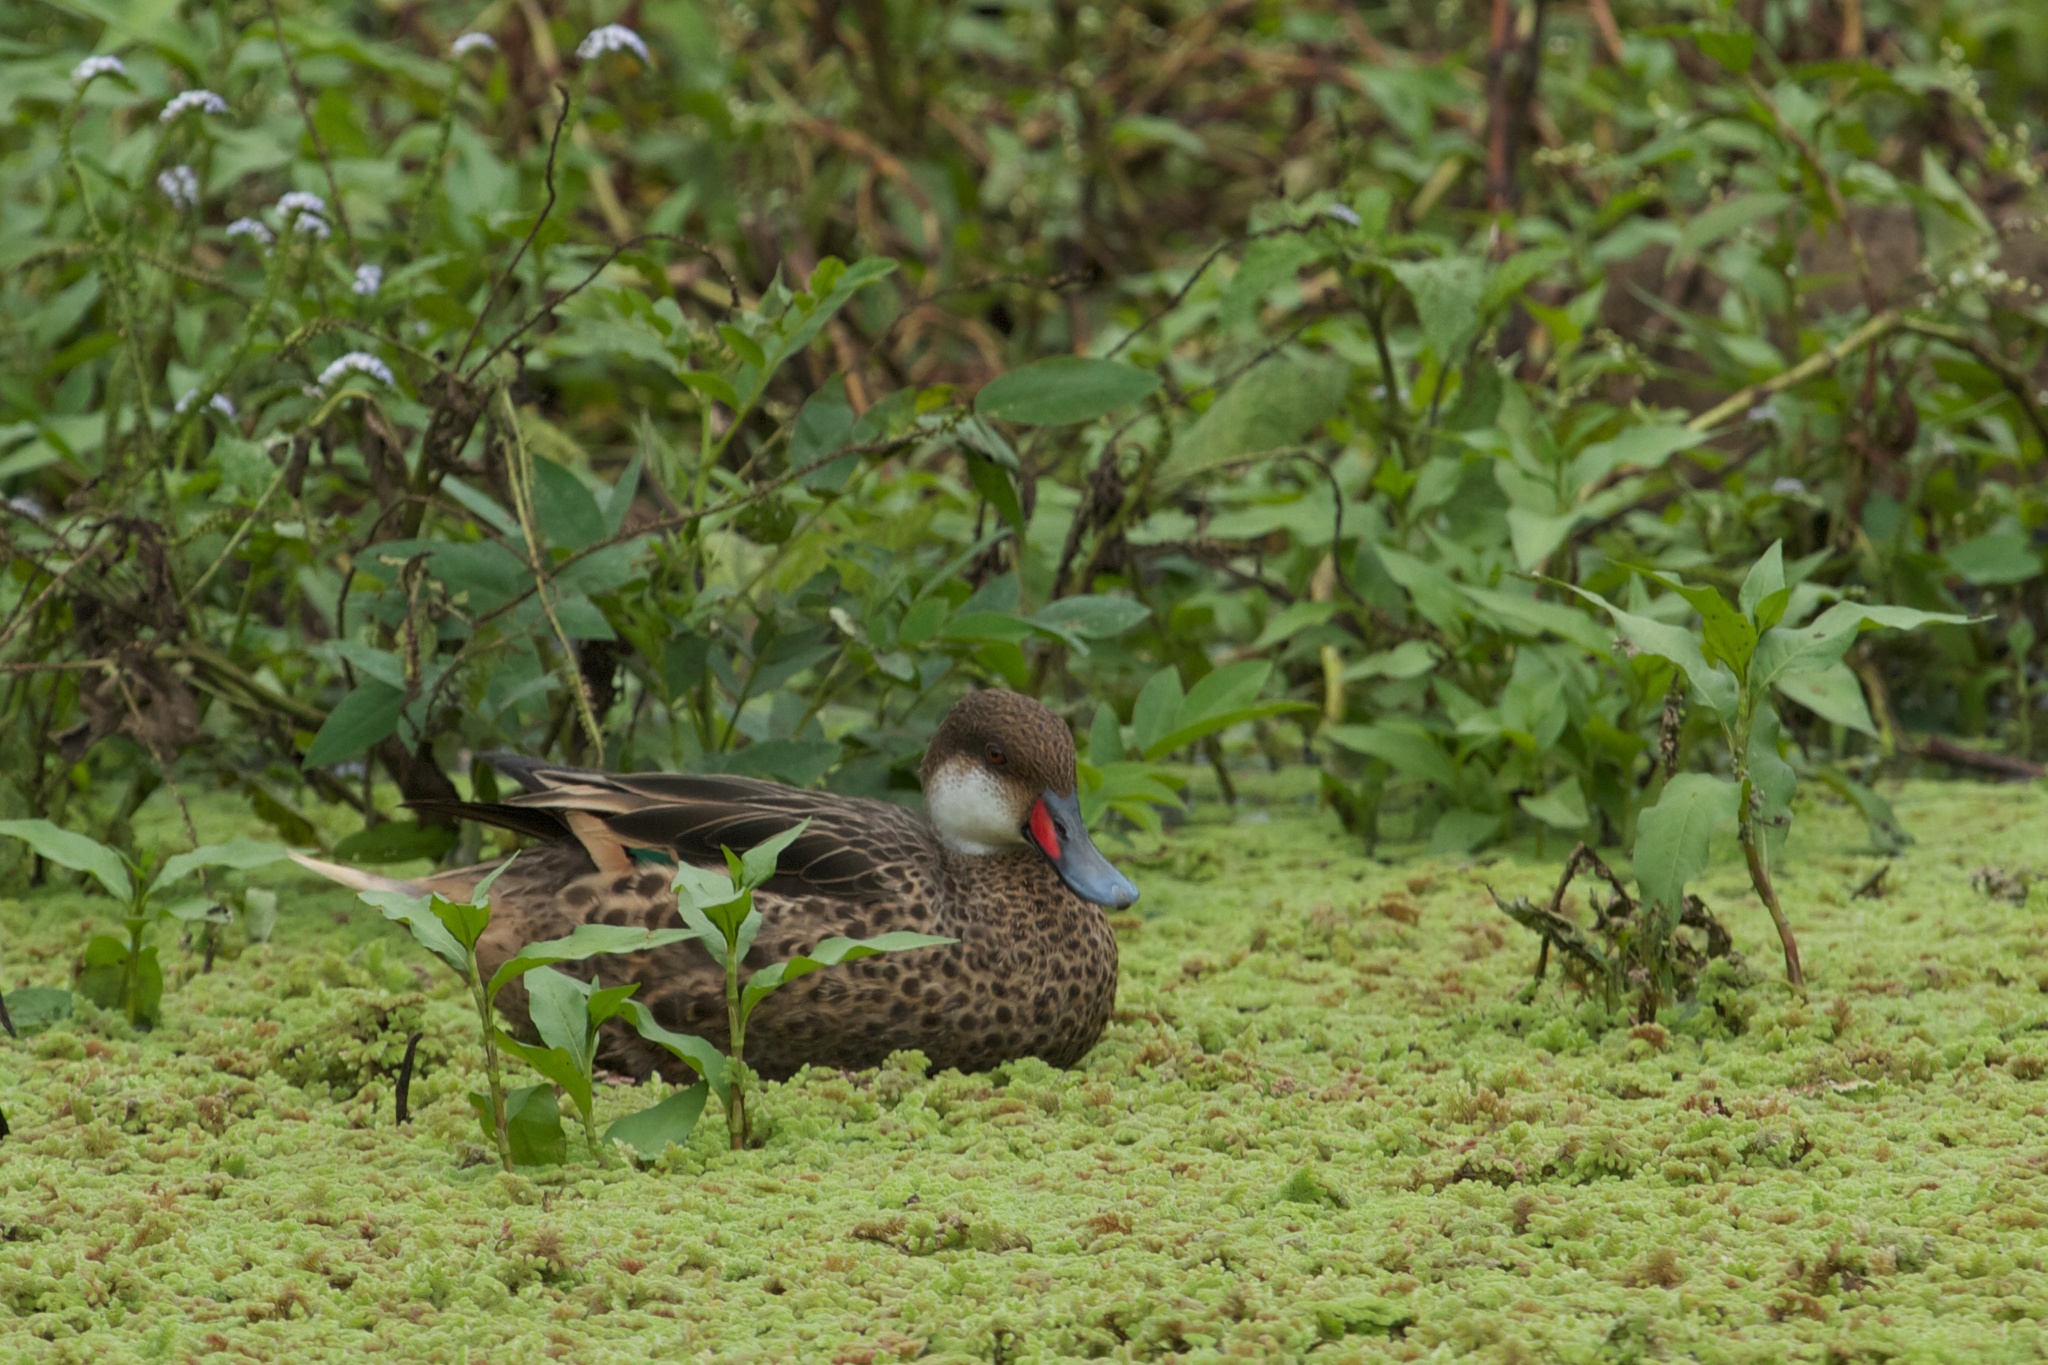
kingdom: Animalia
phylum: Chordata
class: Aves
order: Anseriformes
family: Anatidae
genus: Anas
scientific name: Anas bahamensis
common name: White-cheeked pintail
